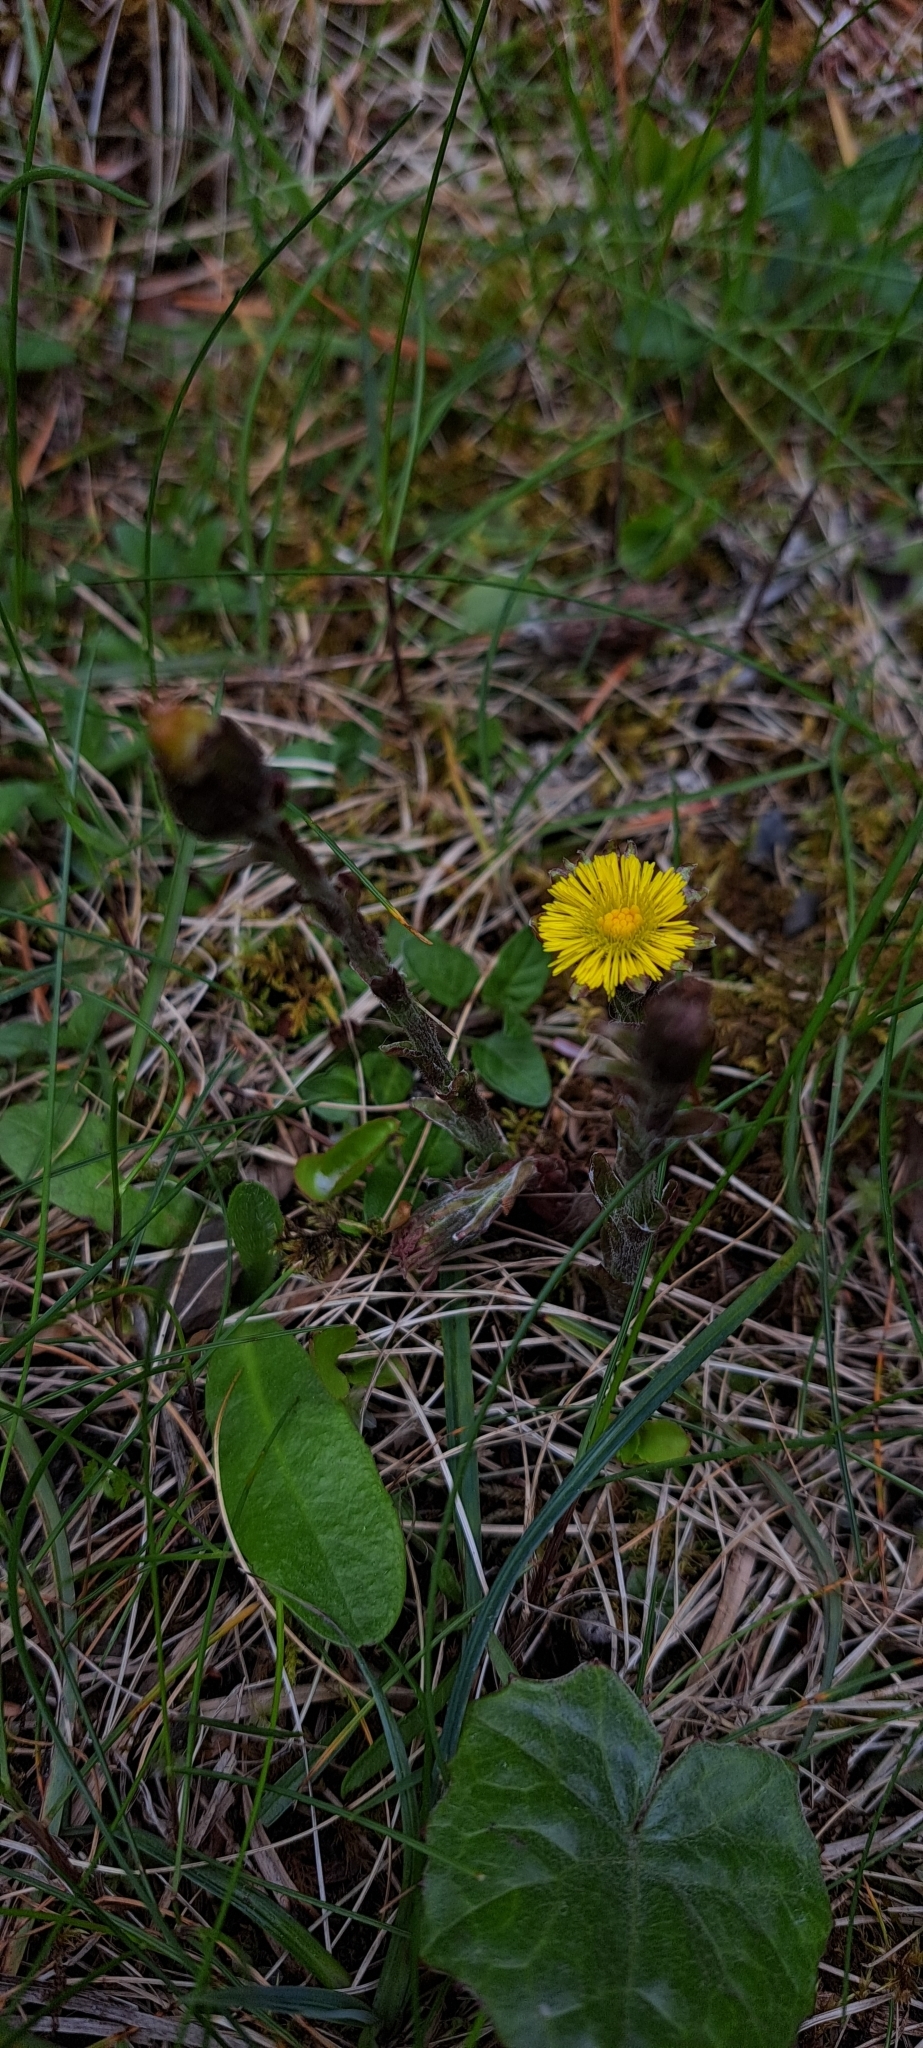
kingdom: Plantae
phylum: Tracheophyta
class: Magnoliopsida
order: Asterales
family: Asteraceae
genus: Tussilago
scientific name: Tussilago farfara
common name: Coltsfoot
